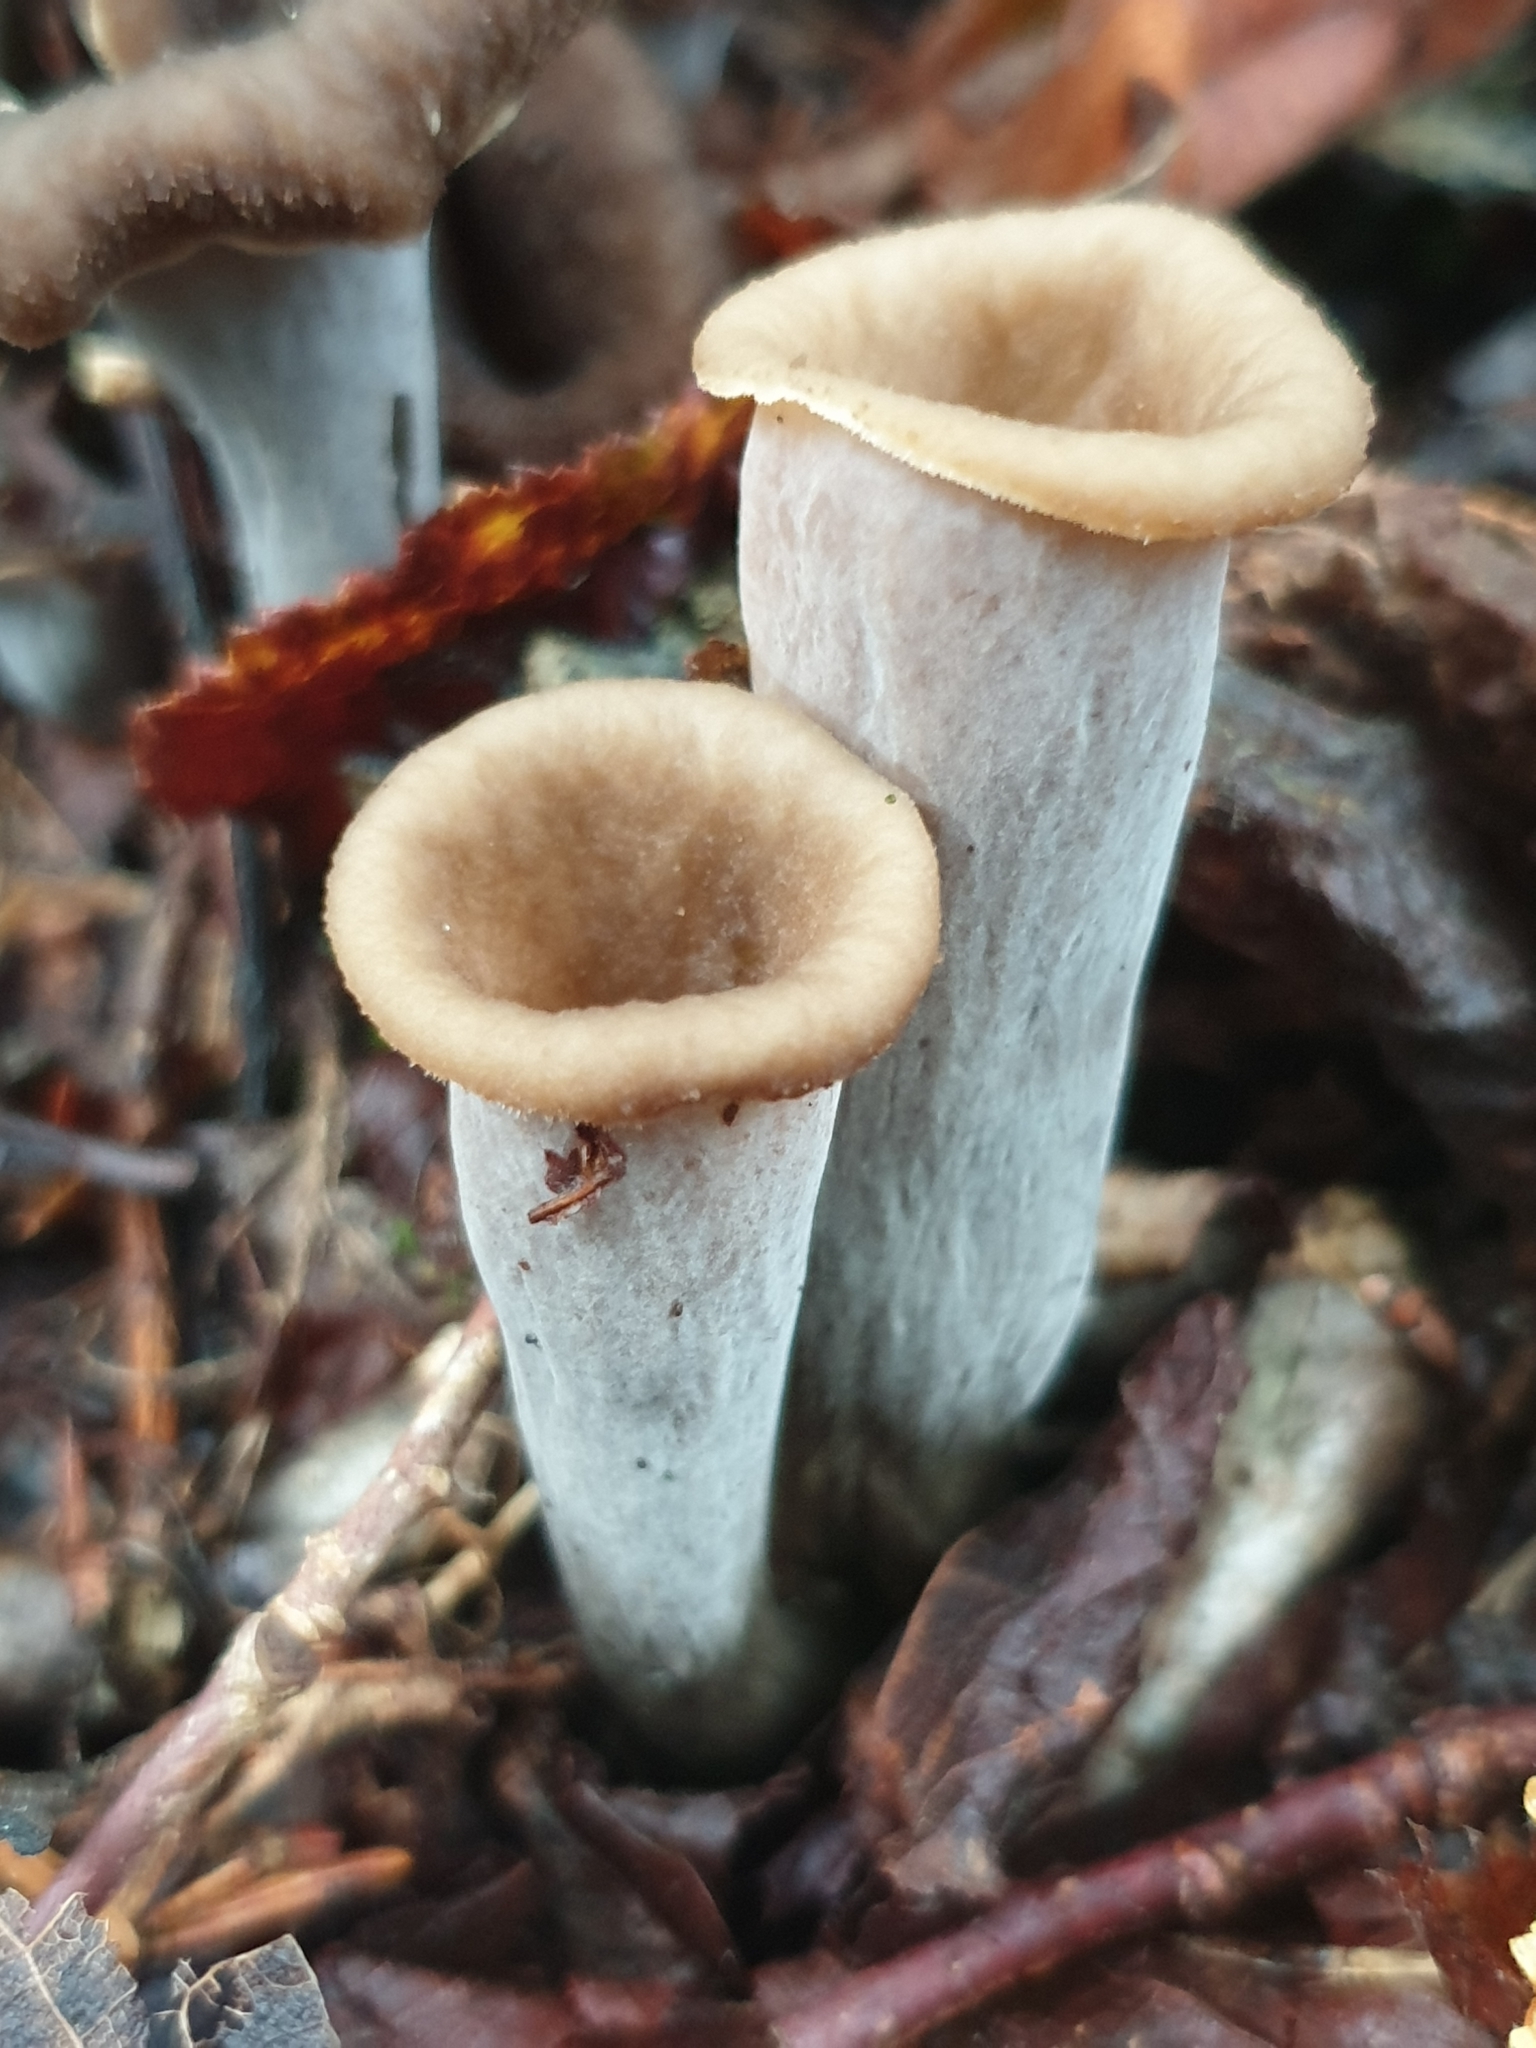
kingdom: Fungi
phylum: Basidiomycota
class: Agaricomycetes
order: Cantharellales
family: Hydnaceae
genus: Craterellus
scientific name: Craterellus cornucopioides
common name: Horn of plenty
